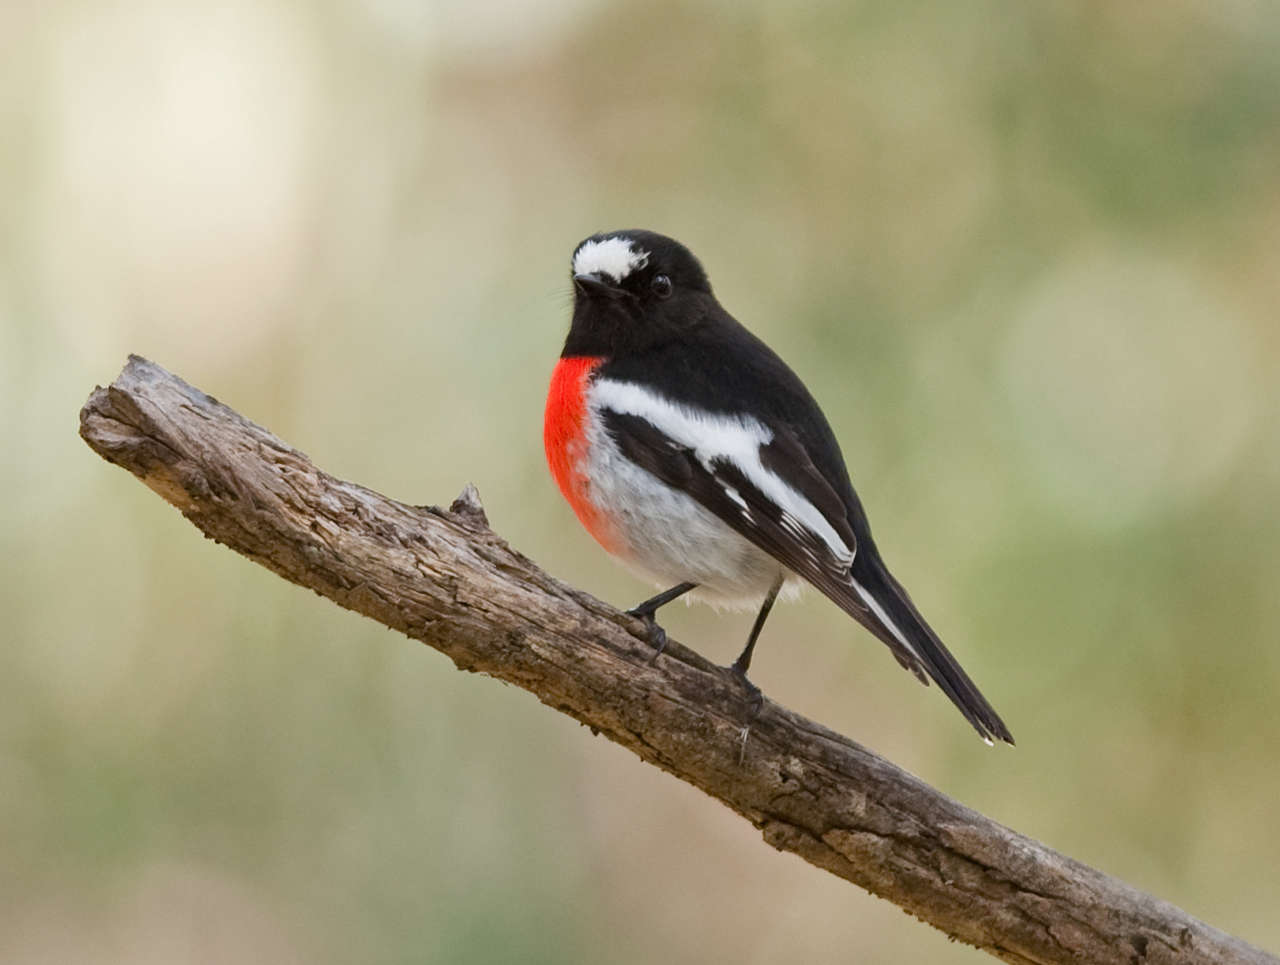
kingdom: Animalia
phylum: Chordata
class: Aves
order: Passeriformes
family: Petroicidae
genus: Petroica
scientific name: Petroica boodang
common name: Scarlet robin
